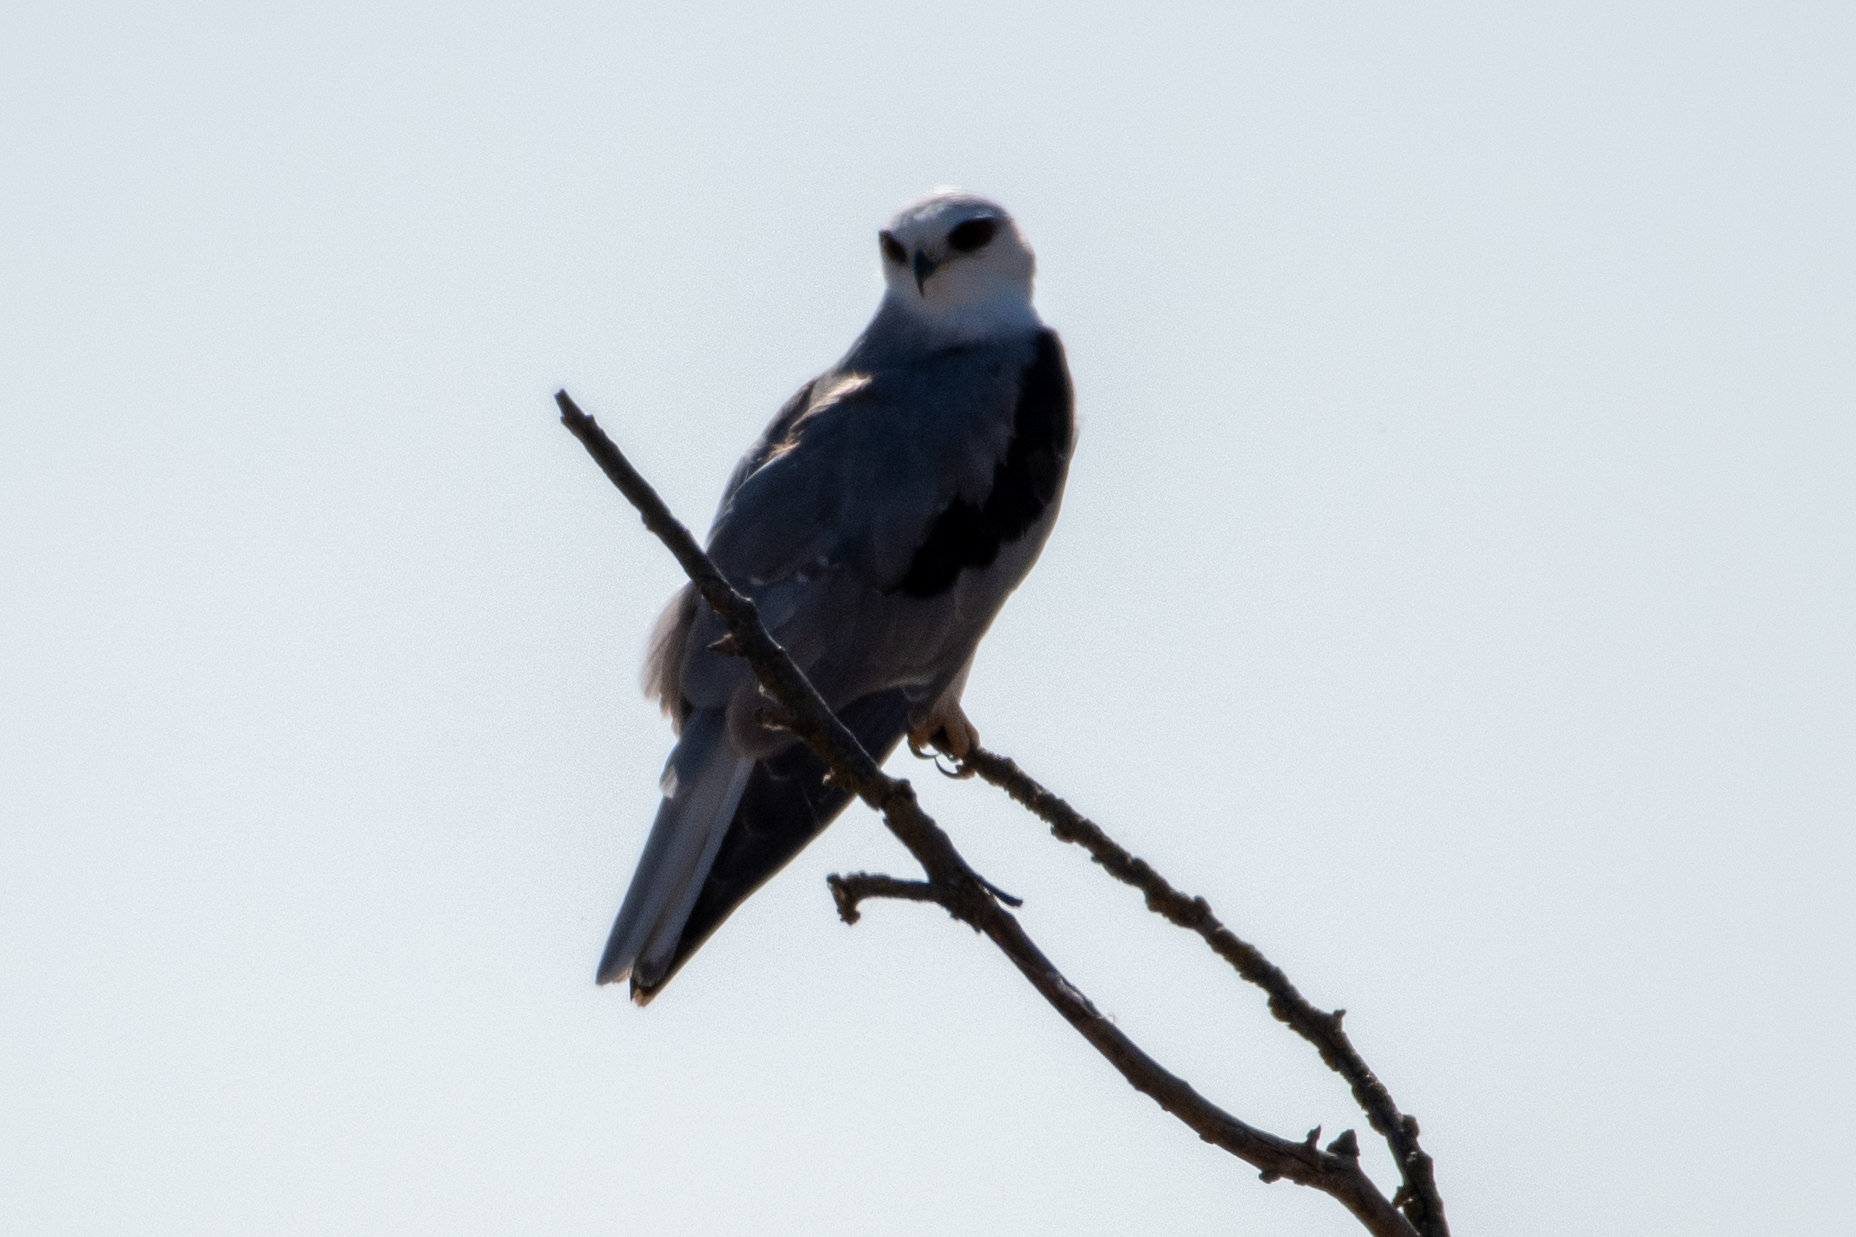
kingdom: Animalia
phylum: Chordata
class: Aves
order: Accipitriformes
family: Accipitridae
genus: Elanus
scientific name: Elanus leucurus
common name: White-tailed kite
